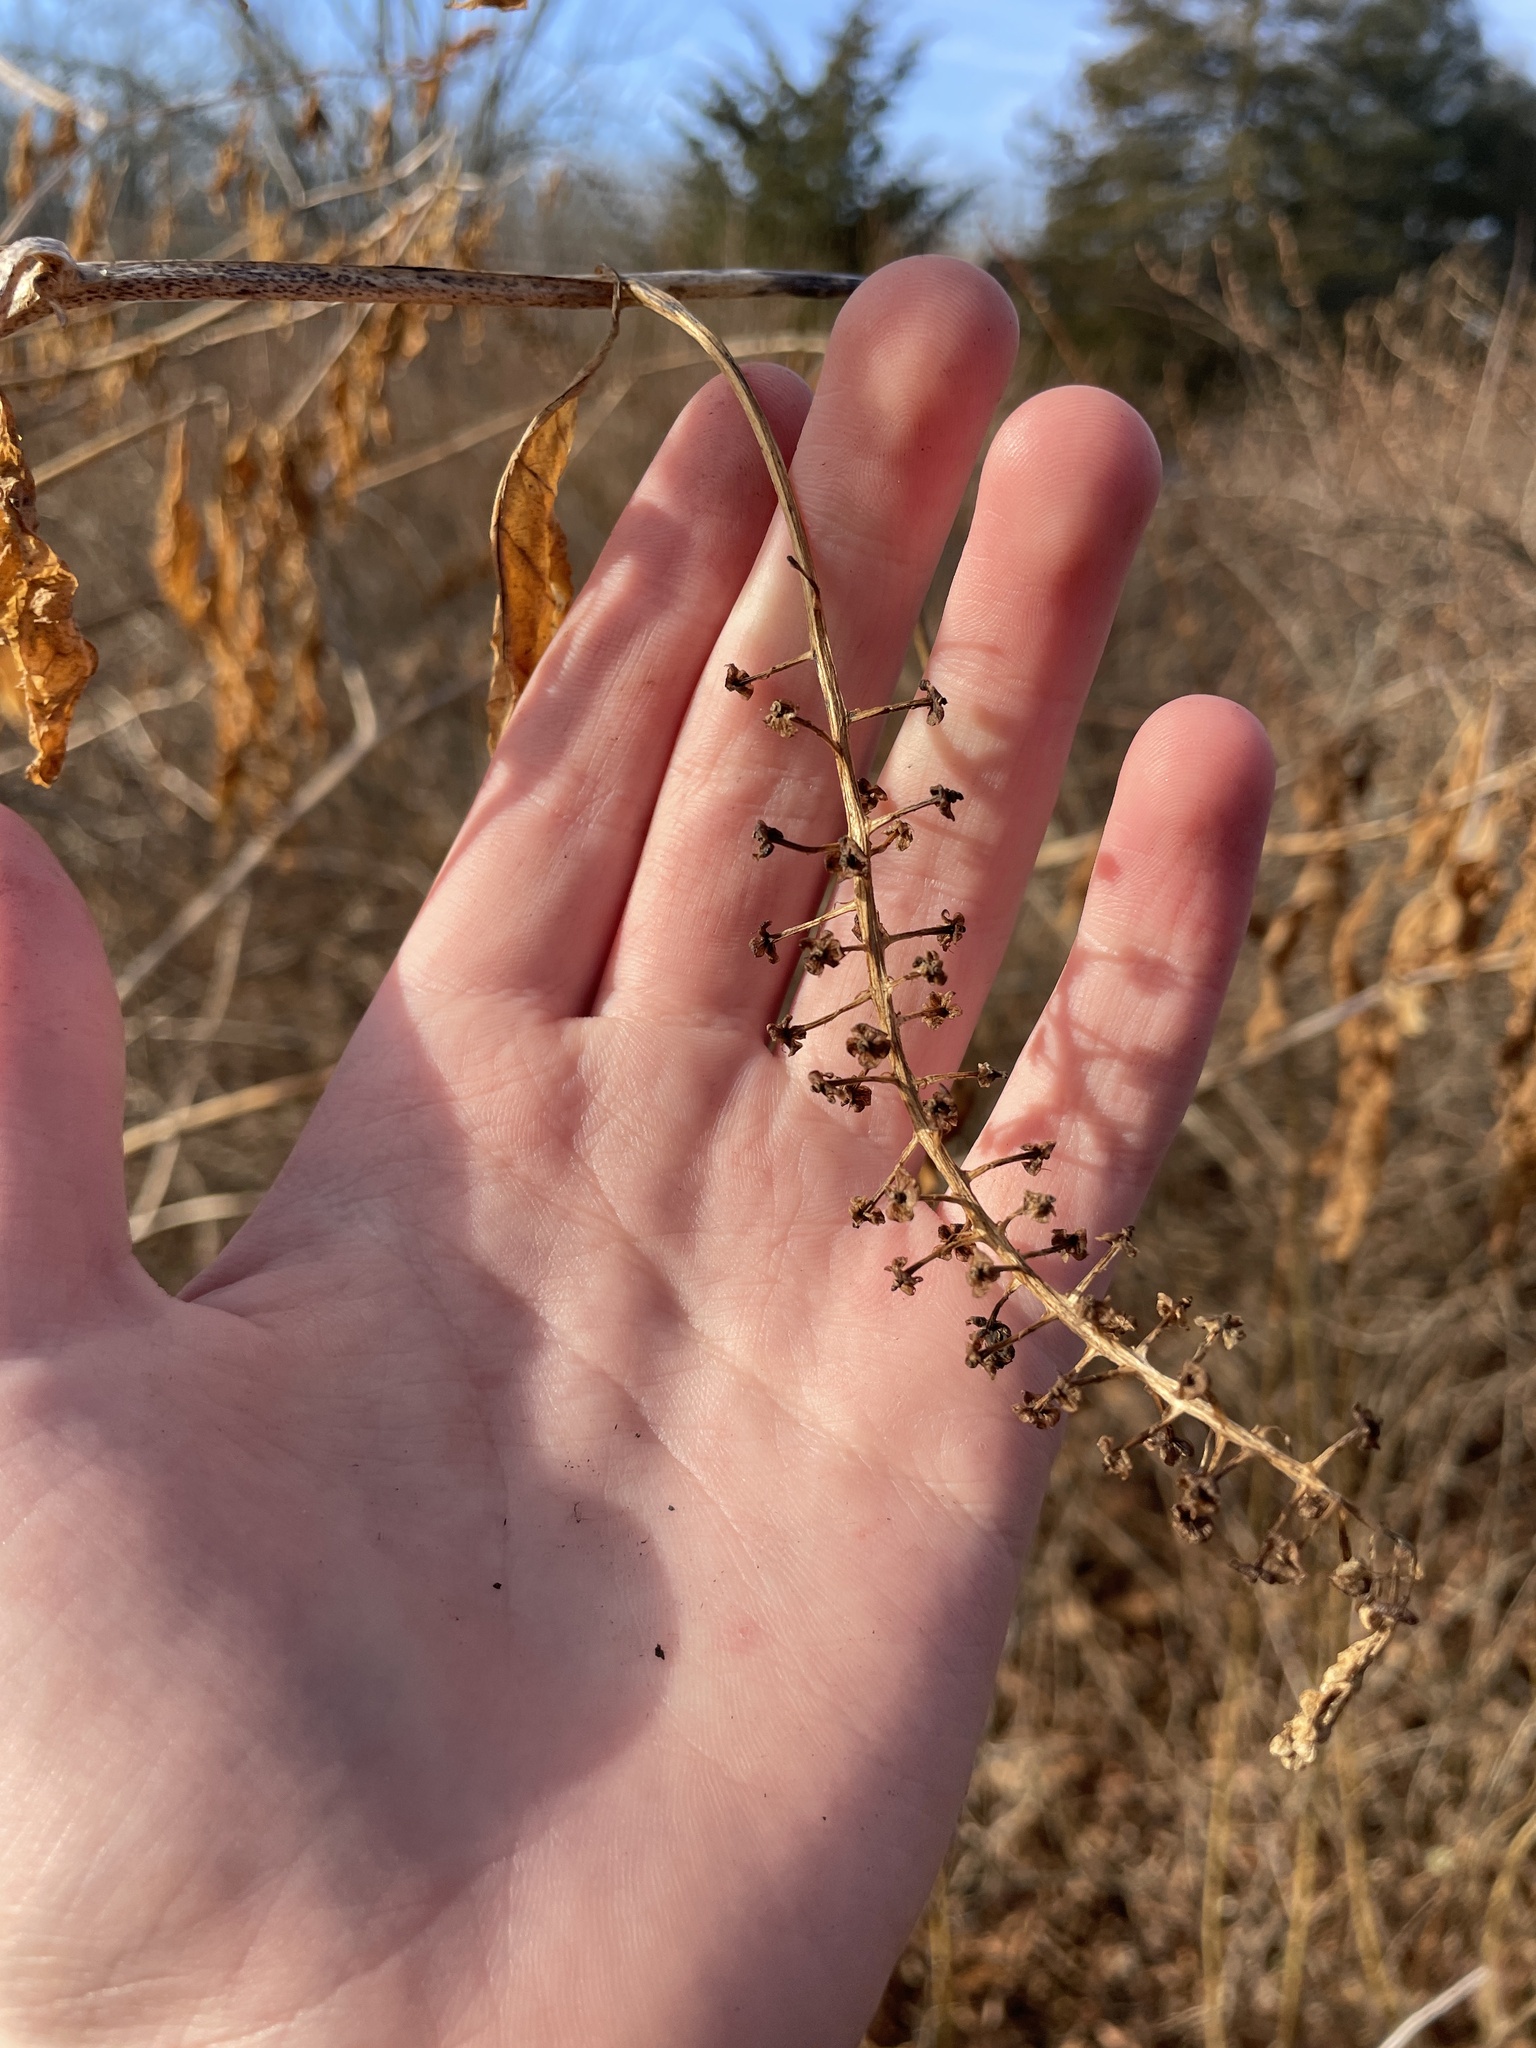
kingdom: Plantae
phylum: Tracheophyta
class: Magnoliopsida
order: Caryophyllales
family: Phytolaccaceae
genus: Phytolacca
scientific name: Phytolacca americana
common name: American pokeweed
